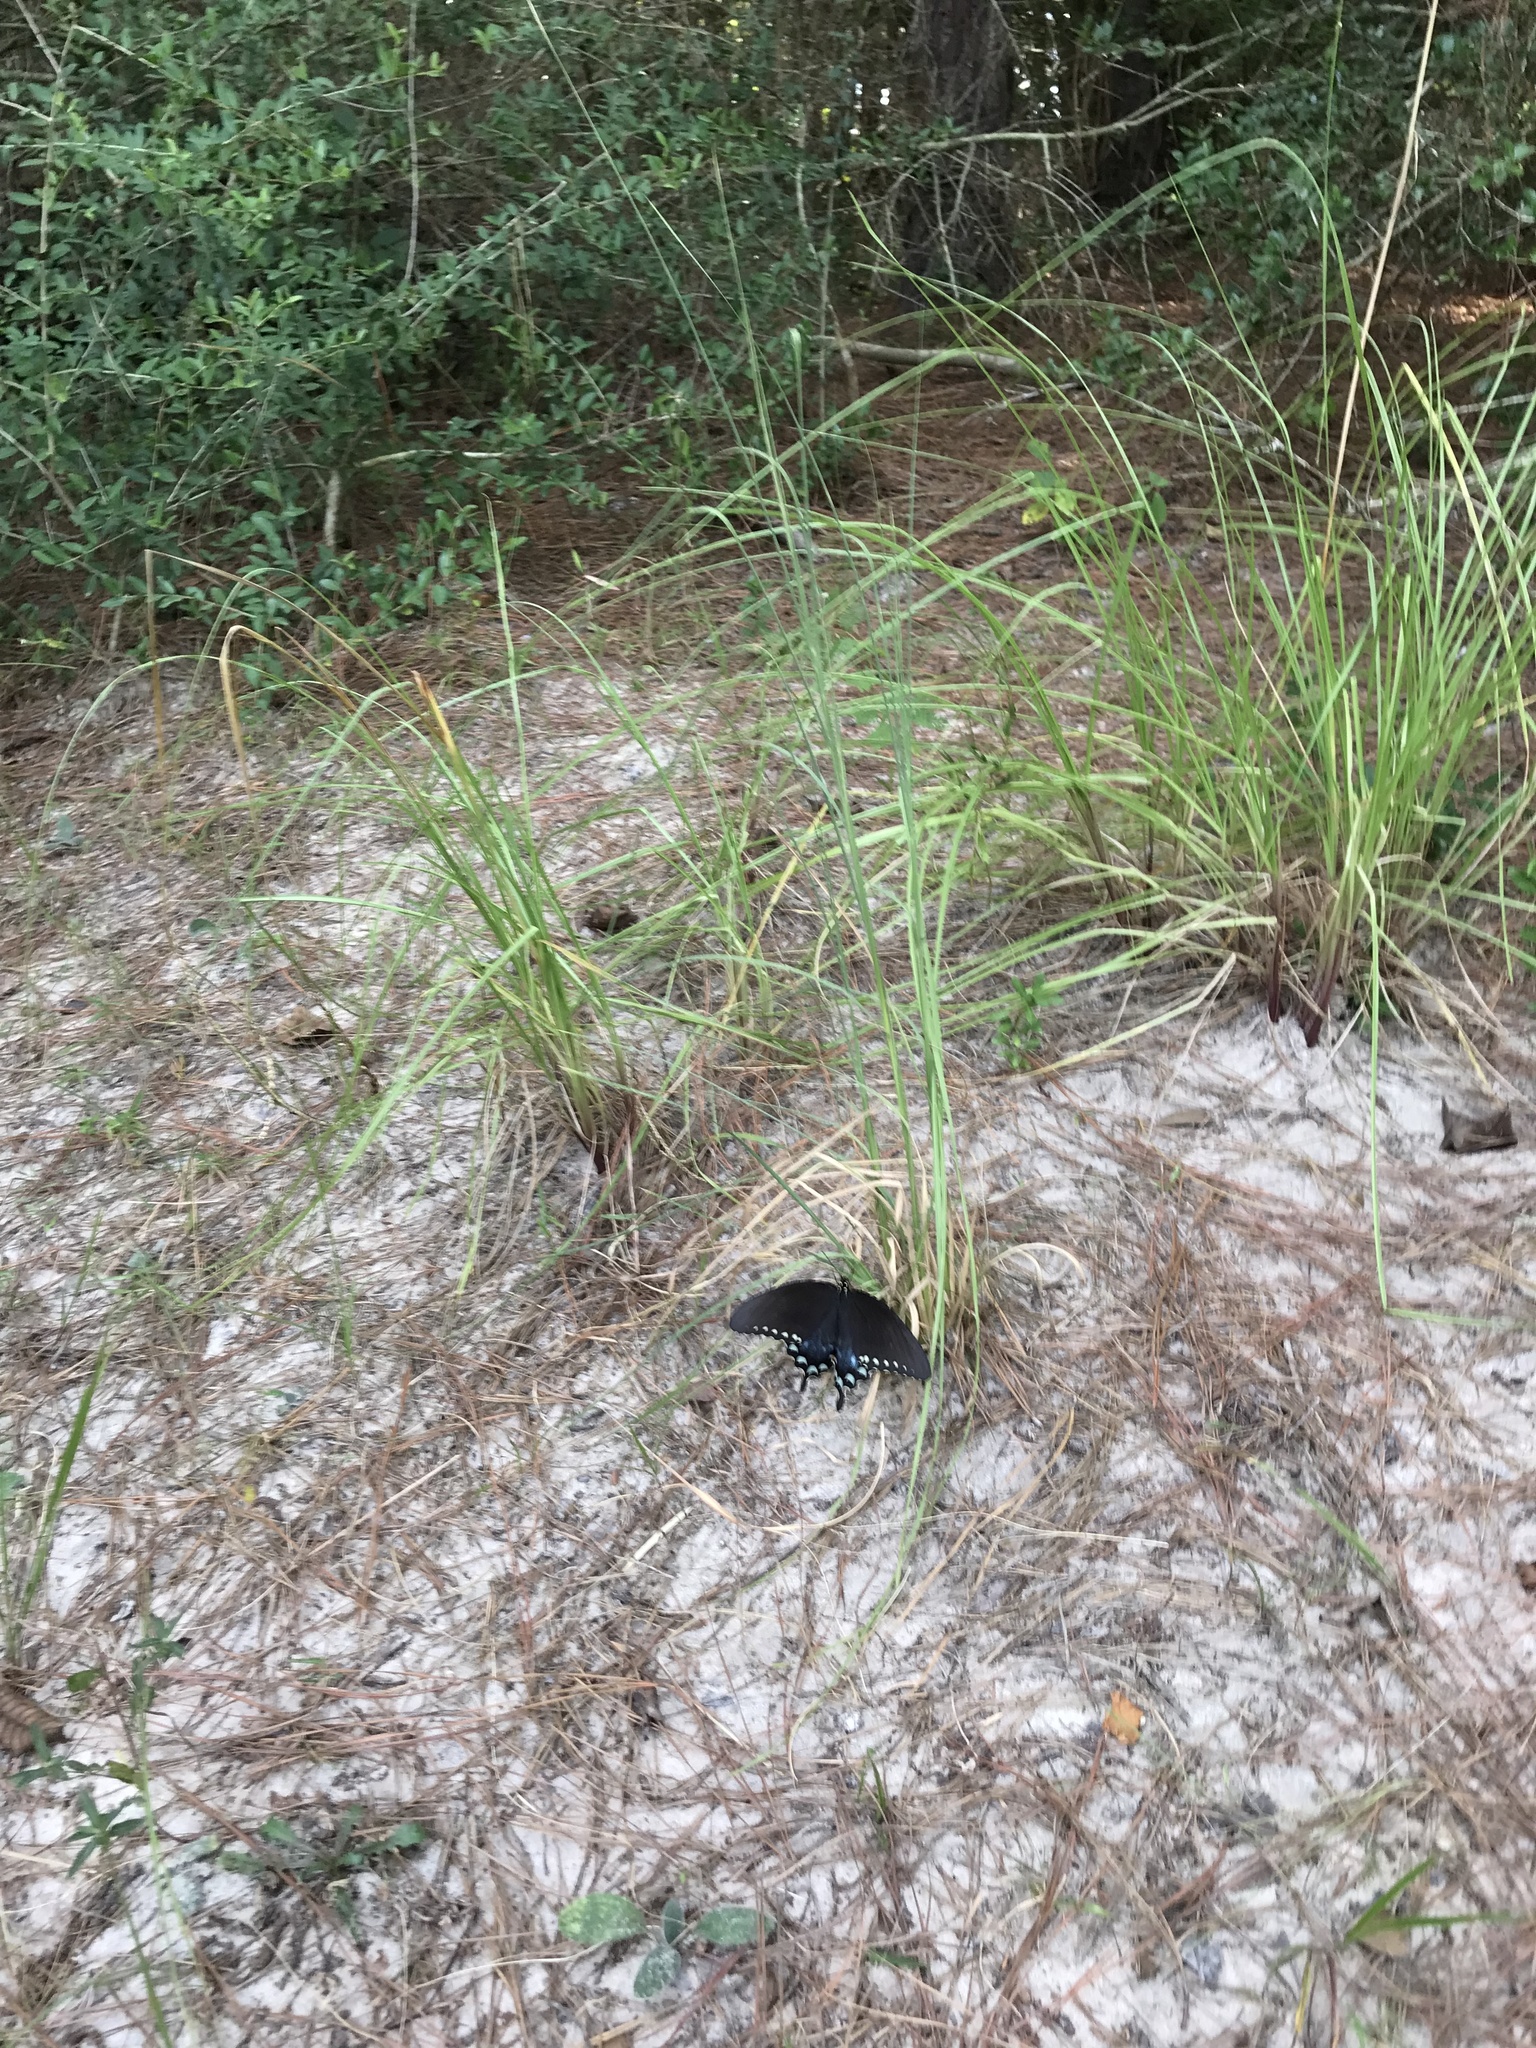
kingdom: Animalia
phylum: Arthropoda
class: Insecta
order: Lepidoptera
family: Papilionidae
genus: Papilio
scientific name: Papilio troilus
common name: Spicebush swallowtail
